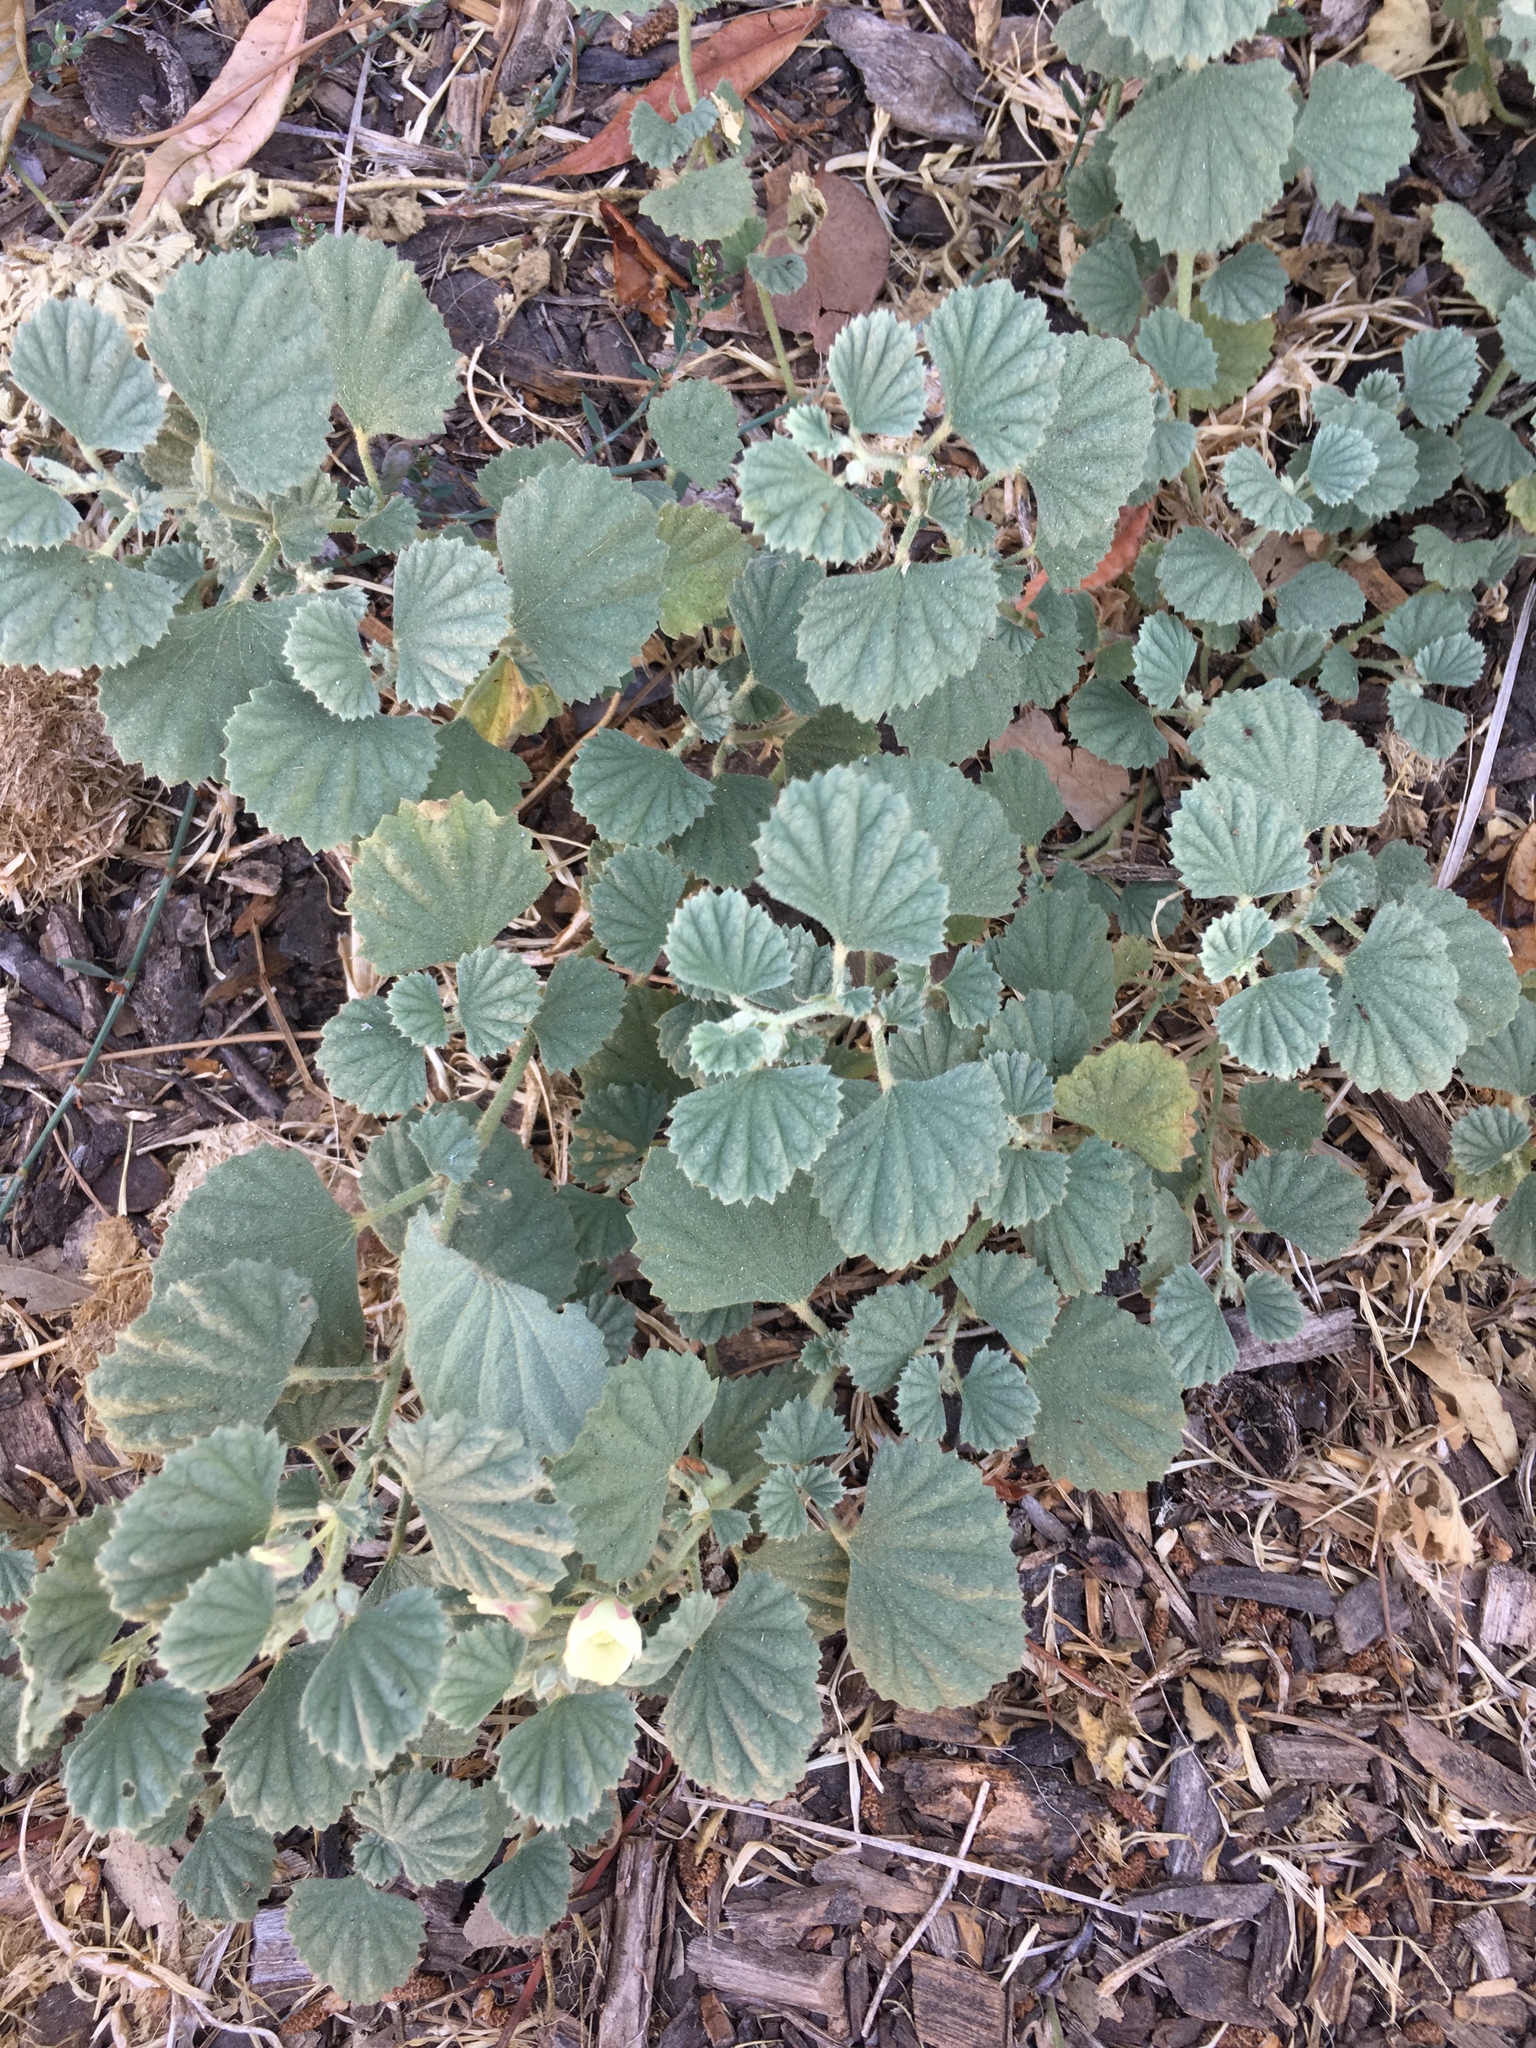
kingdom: Plantae
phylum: Tracheophyta
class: Magnoliopsida
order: Malvales
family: Malvaceae
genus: Malvella
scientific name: Malvella leprosa
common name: Alkali-mallow
